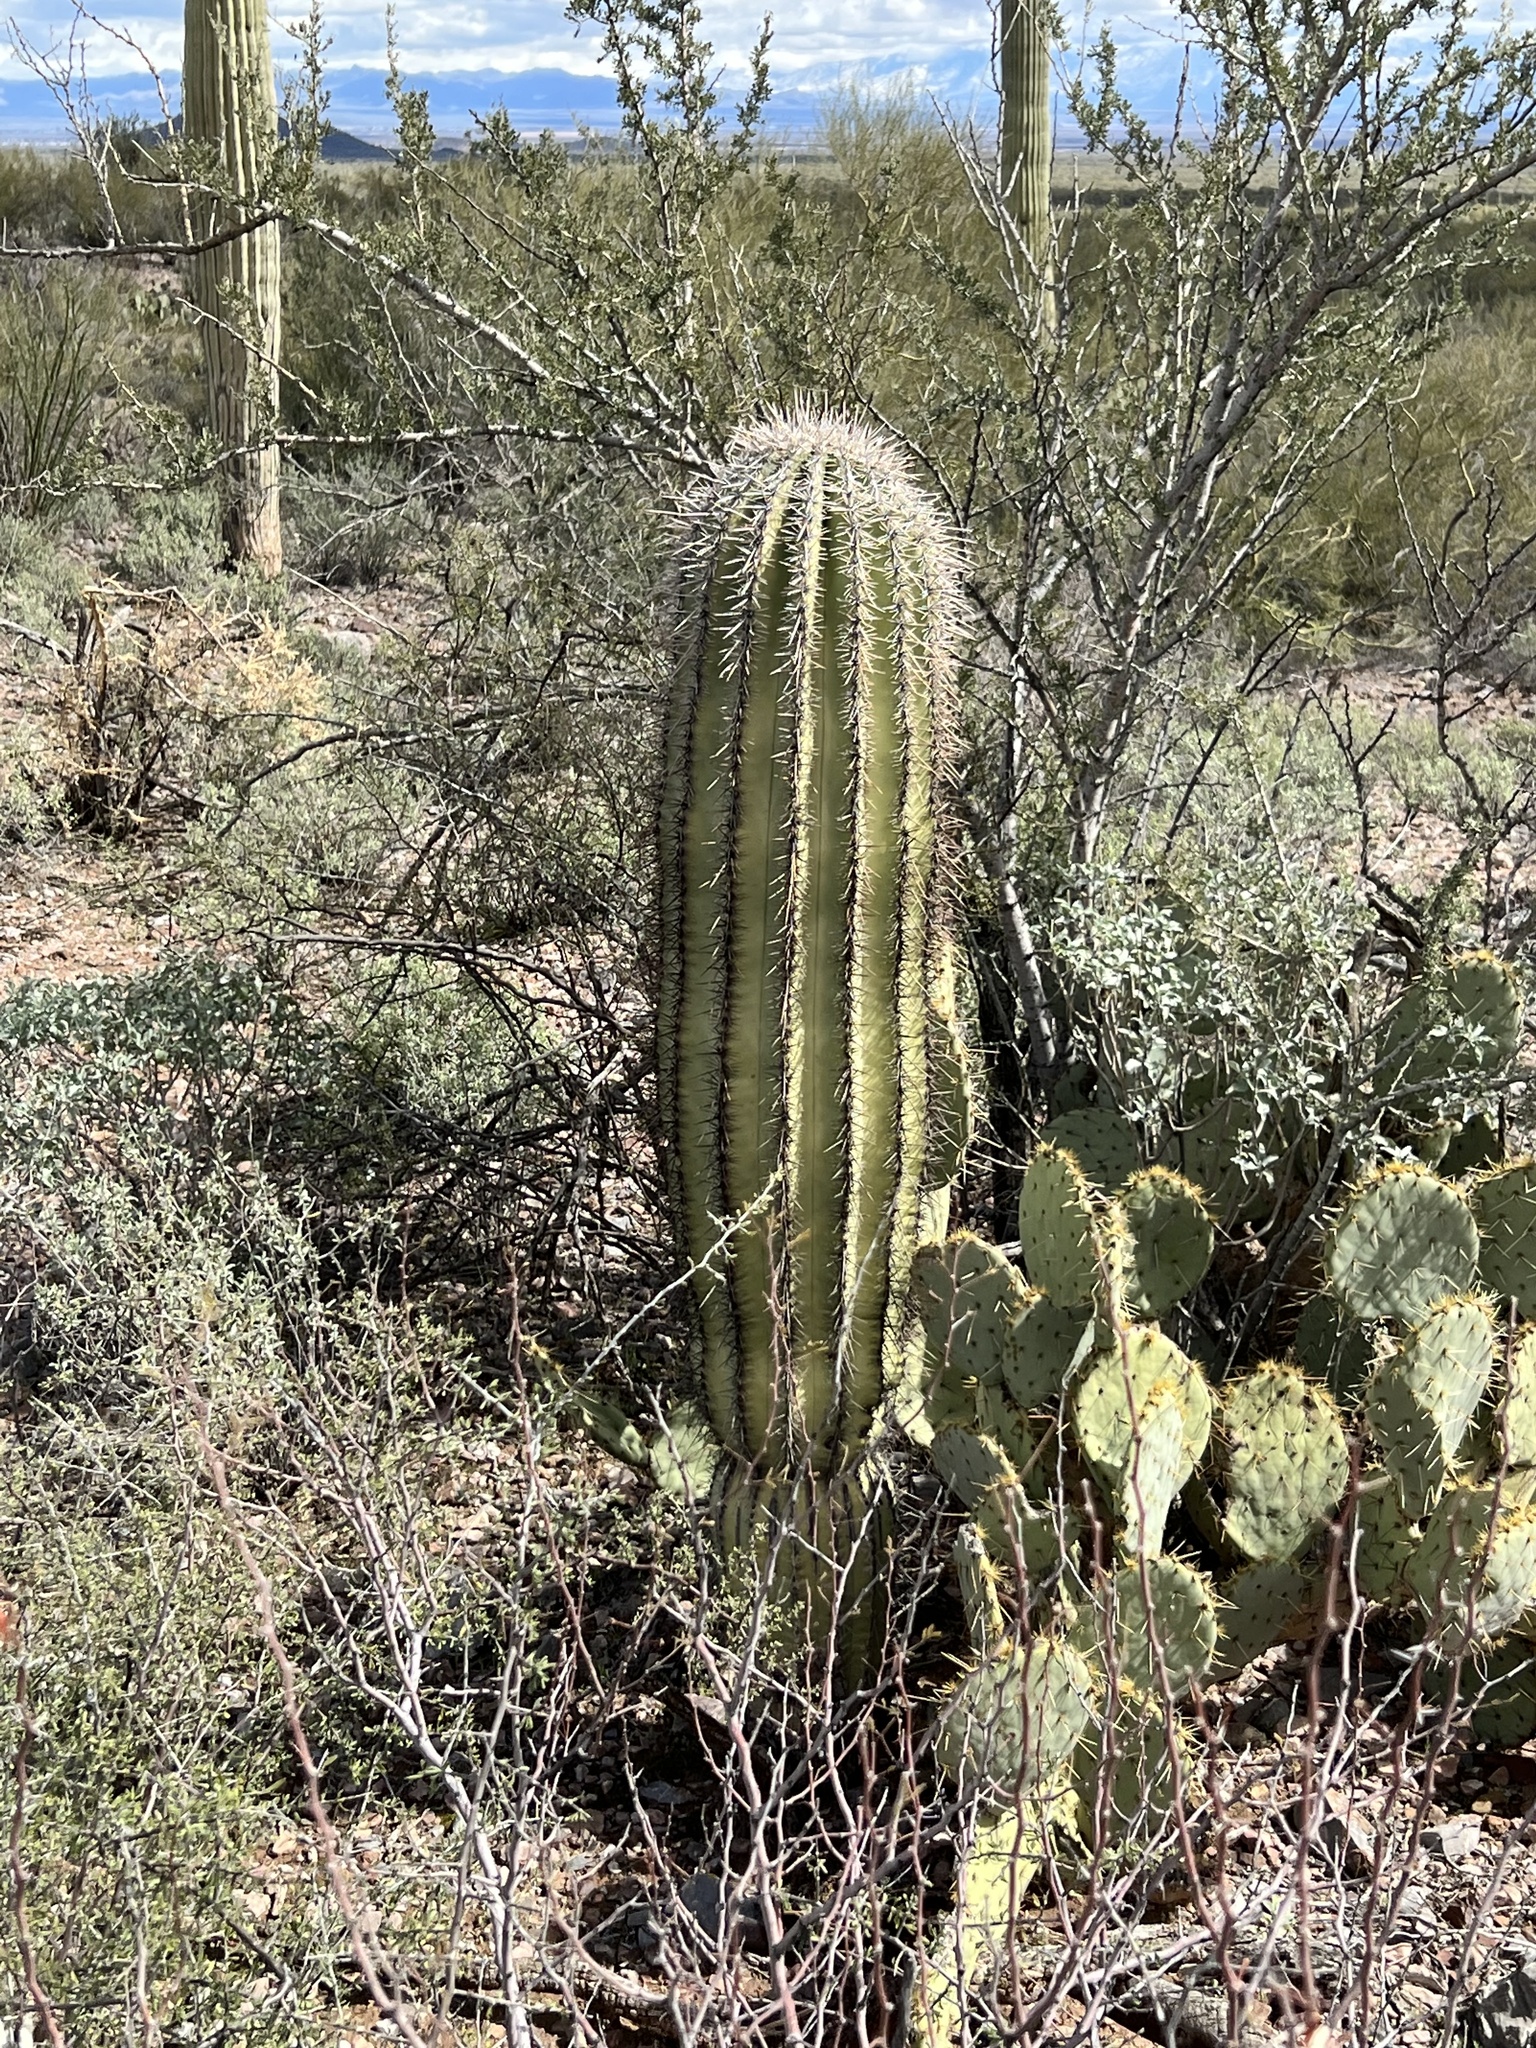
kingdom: Plantae
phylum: Tracheophyta
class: Magnoliopsida
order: Caryophyllales
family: Cactaceae
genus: Carnegiea
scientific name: Carnegiea gigantea
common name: Saguaro
